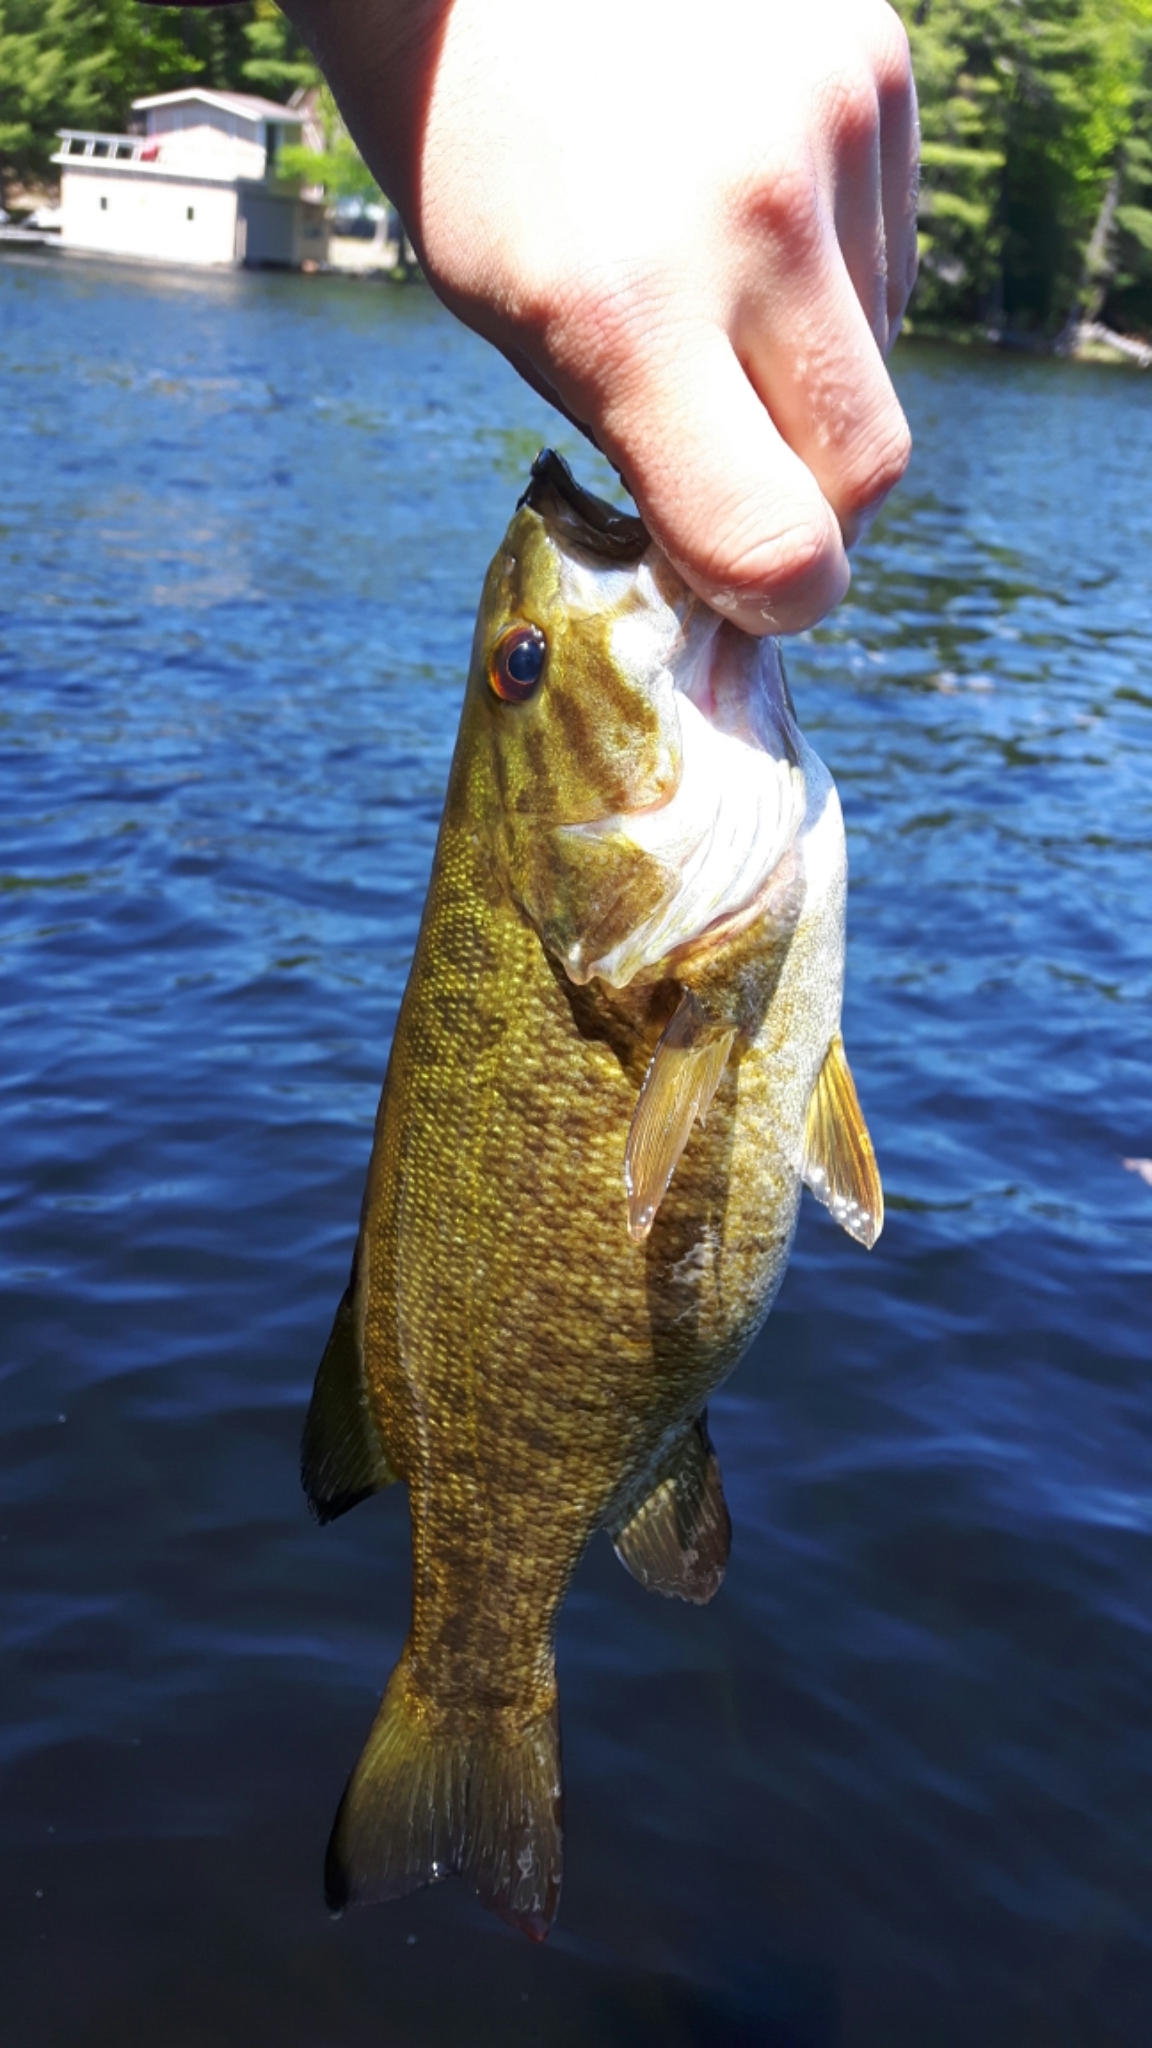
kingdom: Animalia
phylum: Chordata
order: Perciformes
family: Centrarchidae
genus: Micropterus
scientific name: Micropterus dolomieu
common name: Smallmouth bass
